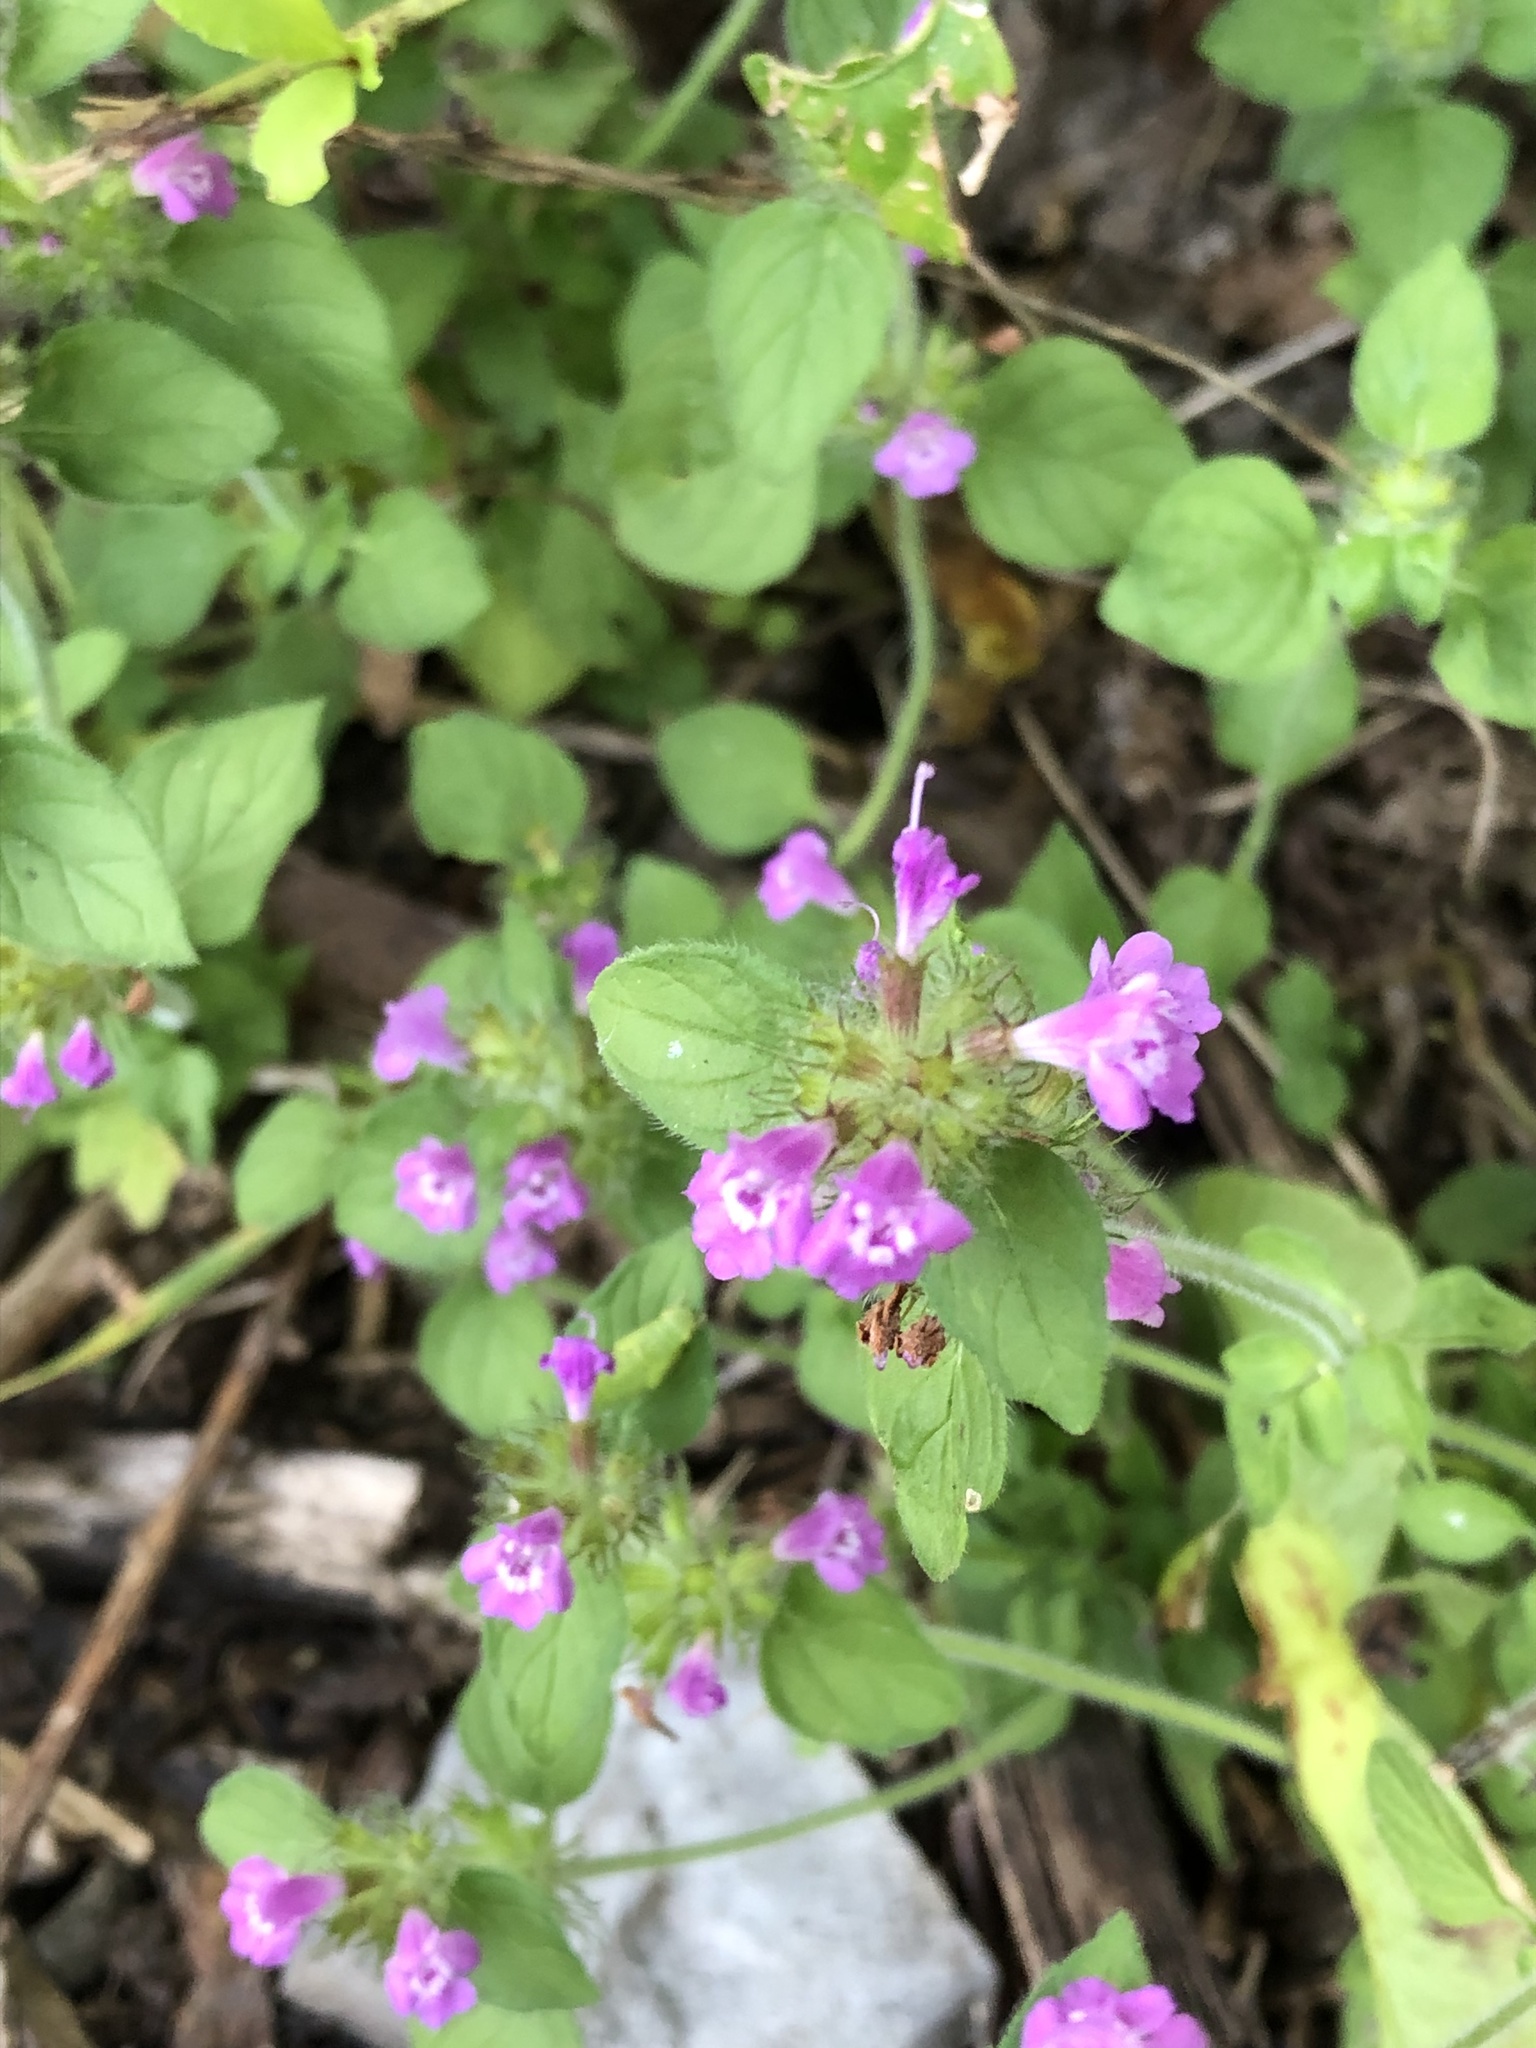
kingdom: Plantae
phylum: Tracheophyta
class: Magnoliopsida
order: Lamiales
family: Lamiaceae
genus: Clinopodium
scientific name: Clinopodium vulgare
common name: Wild basil
